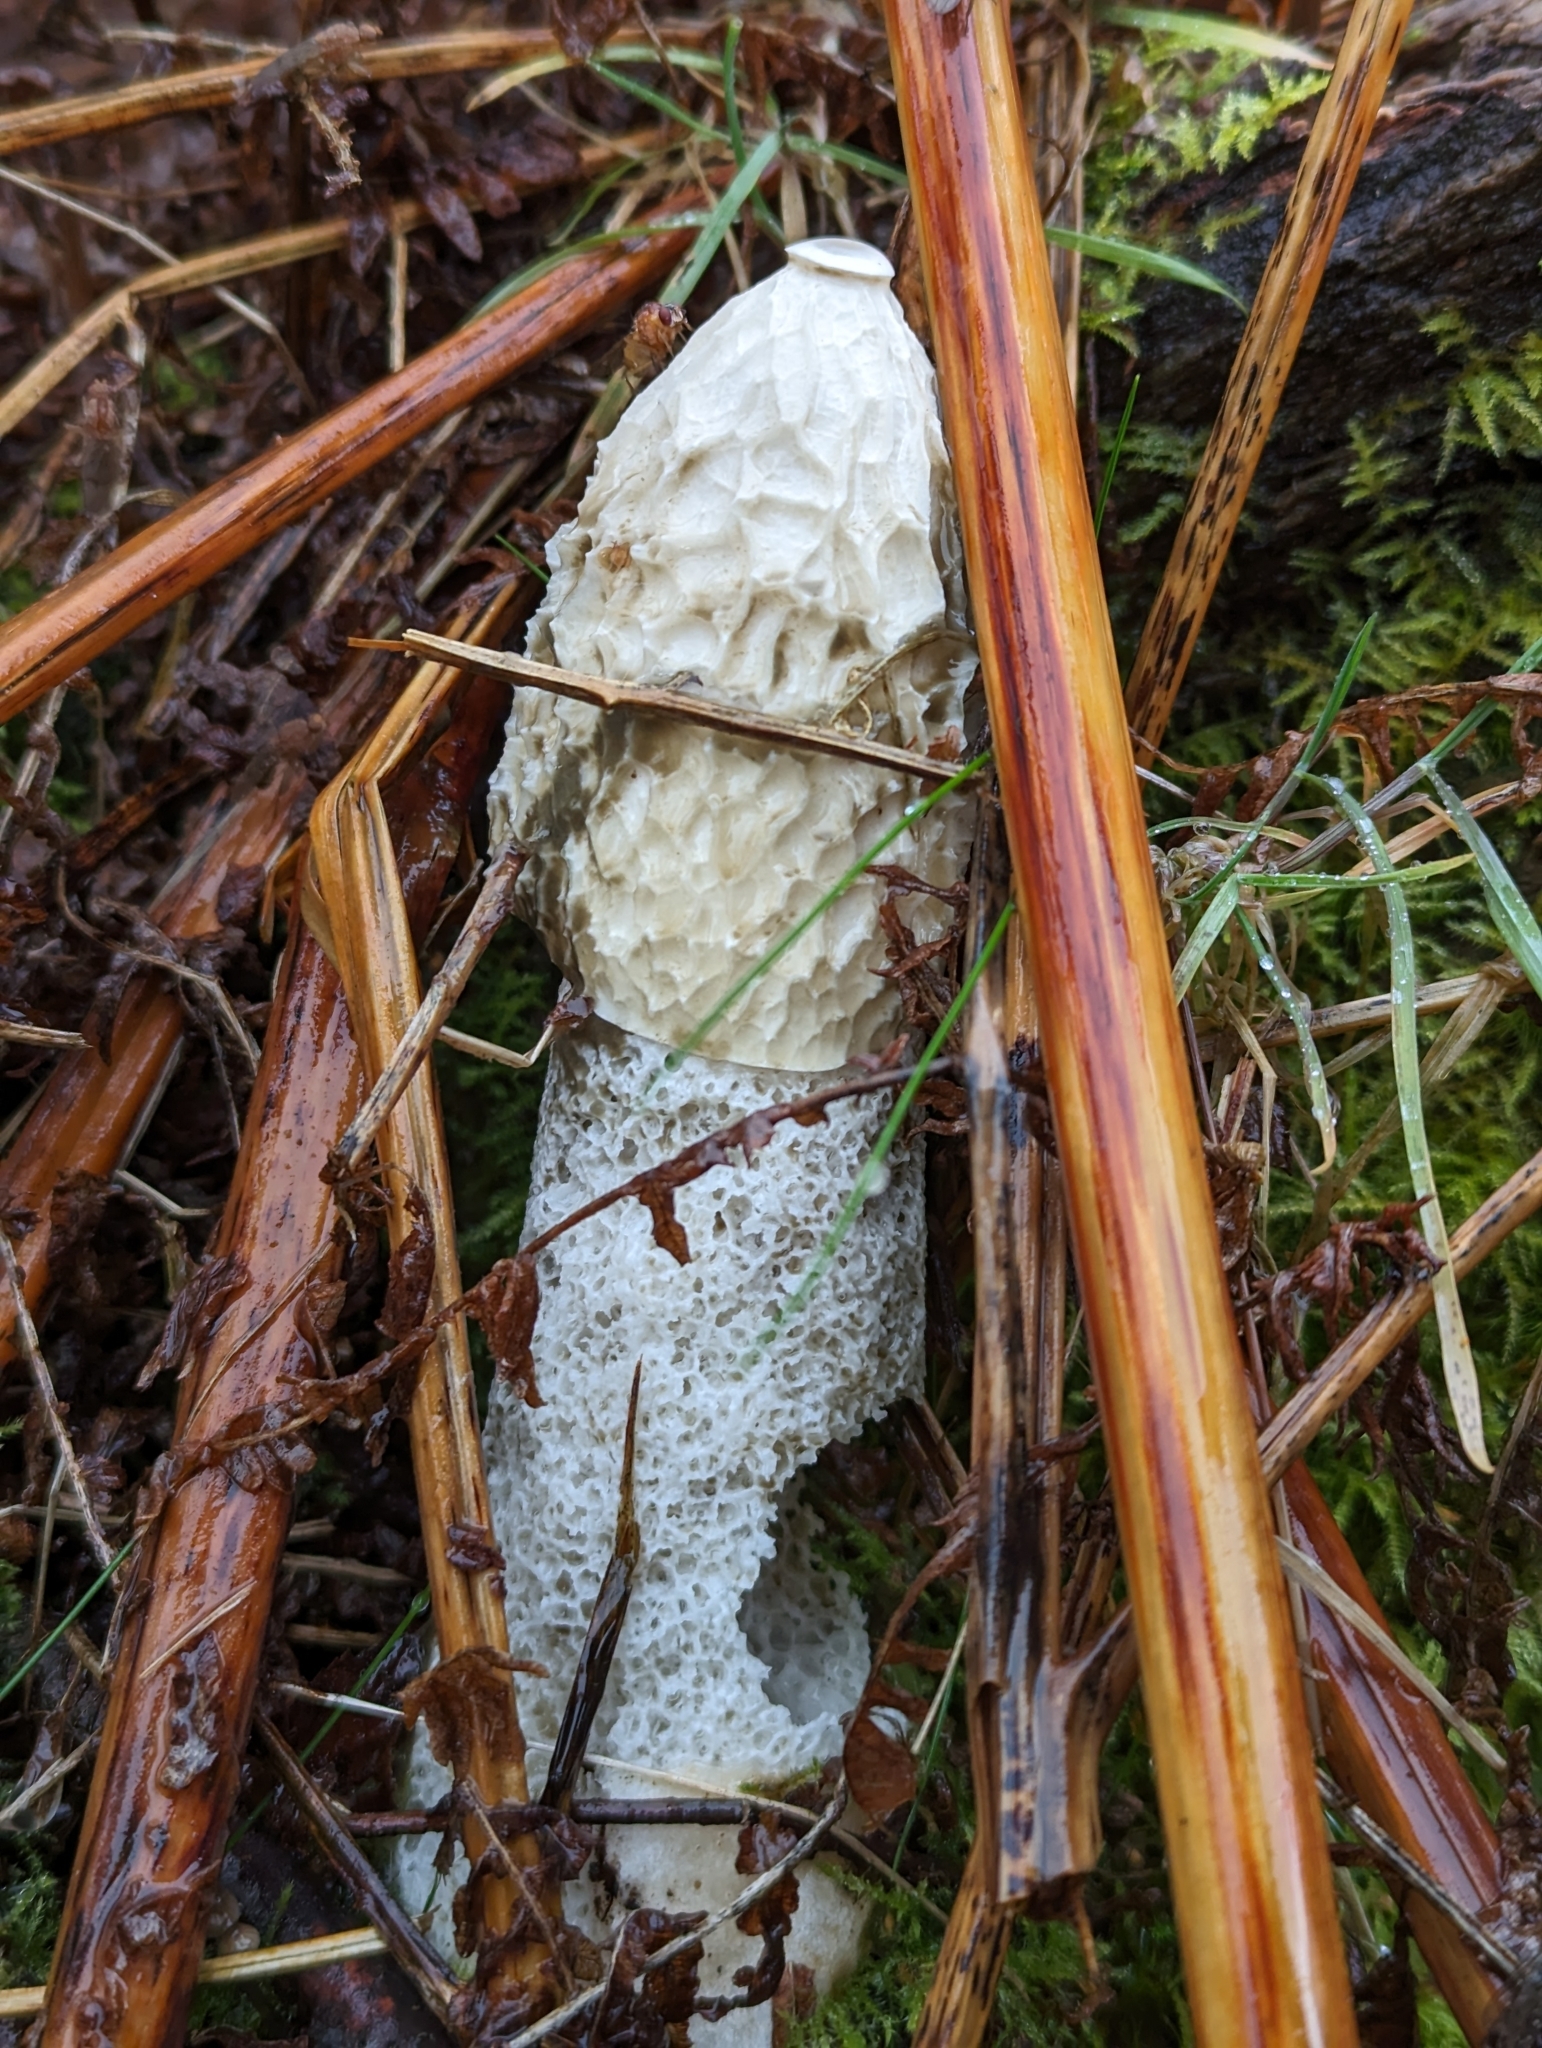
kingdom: Fungi
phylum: Basidiomycota
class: Agaricomycetes
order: Phallales
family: Phallaceae
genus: Phallus
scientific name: Phallus impudicus
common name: Common stinkhorn
